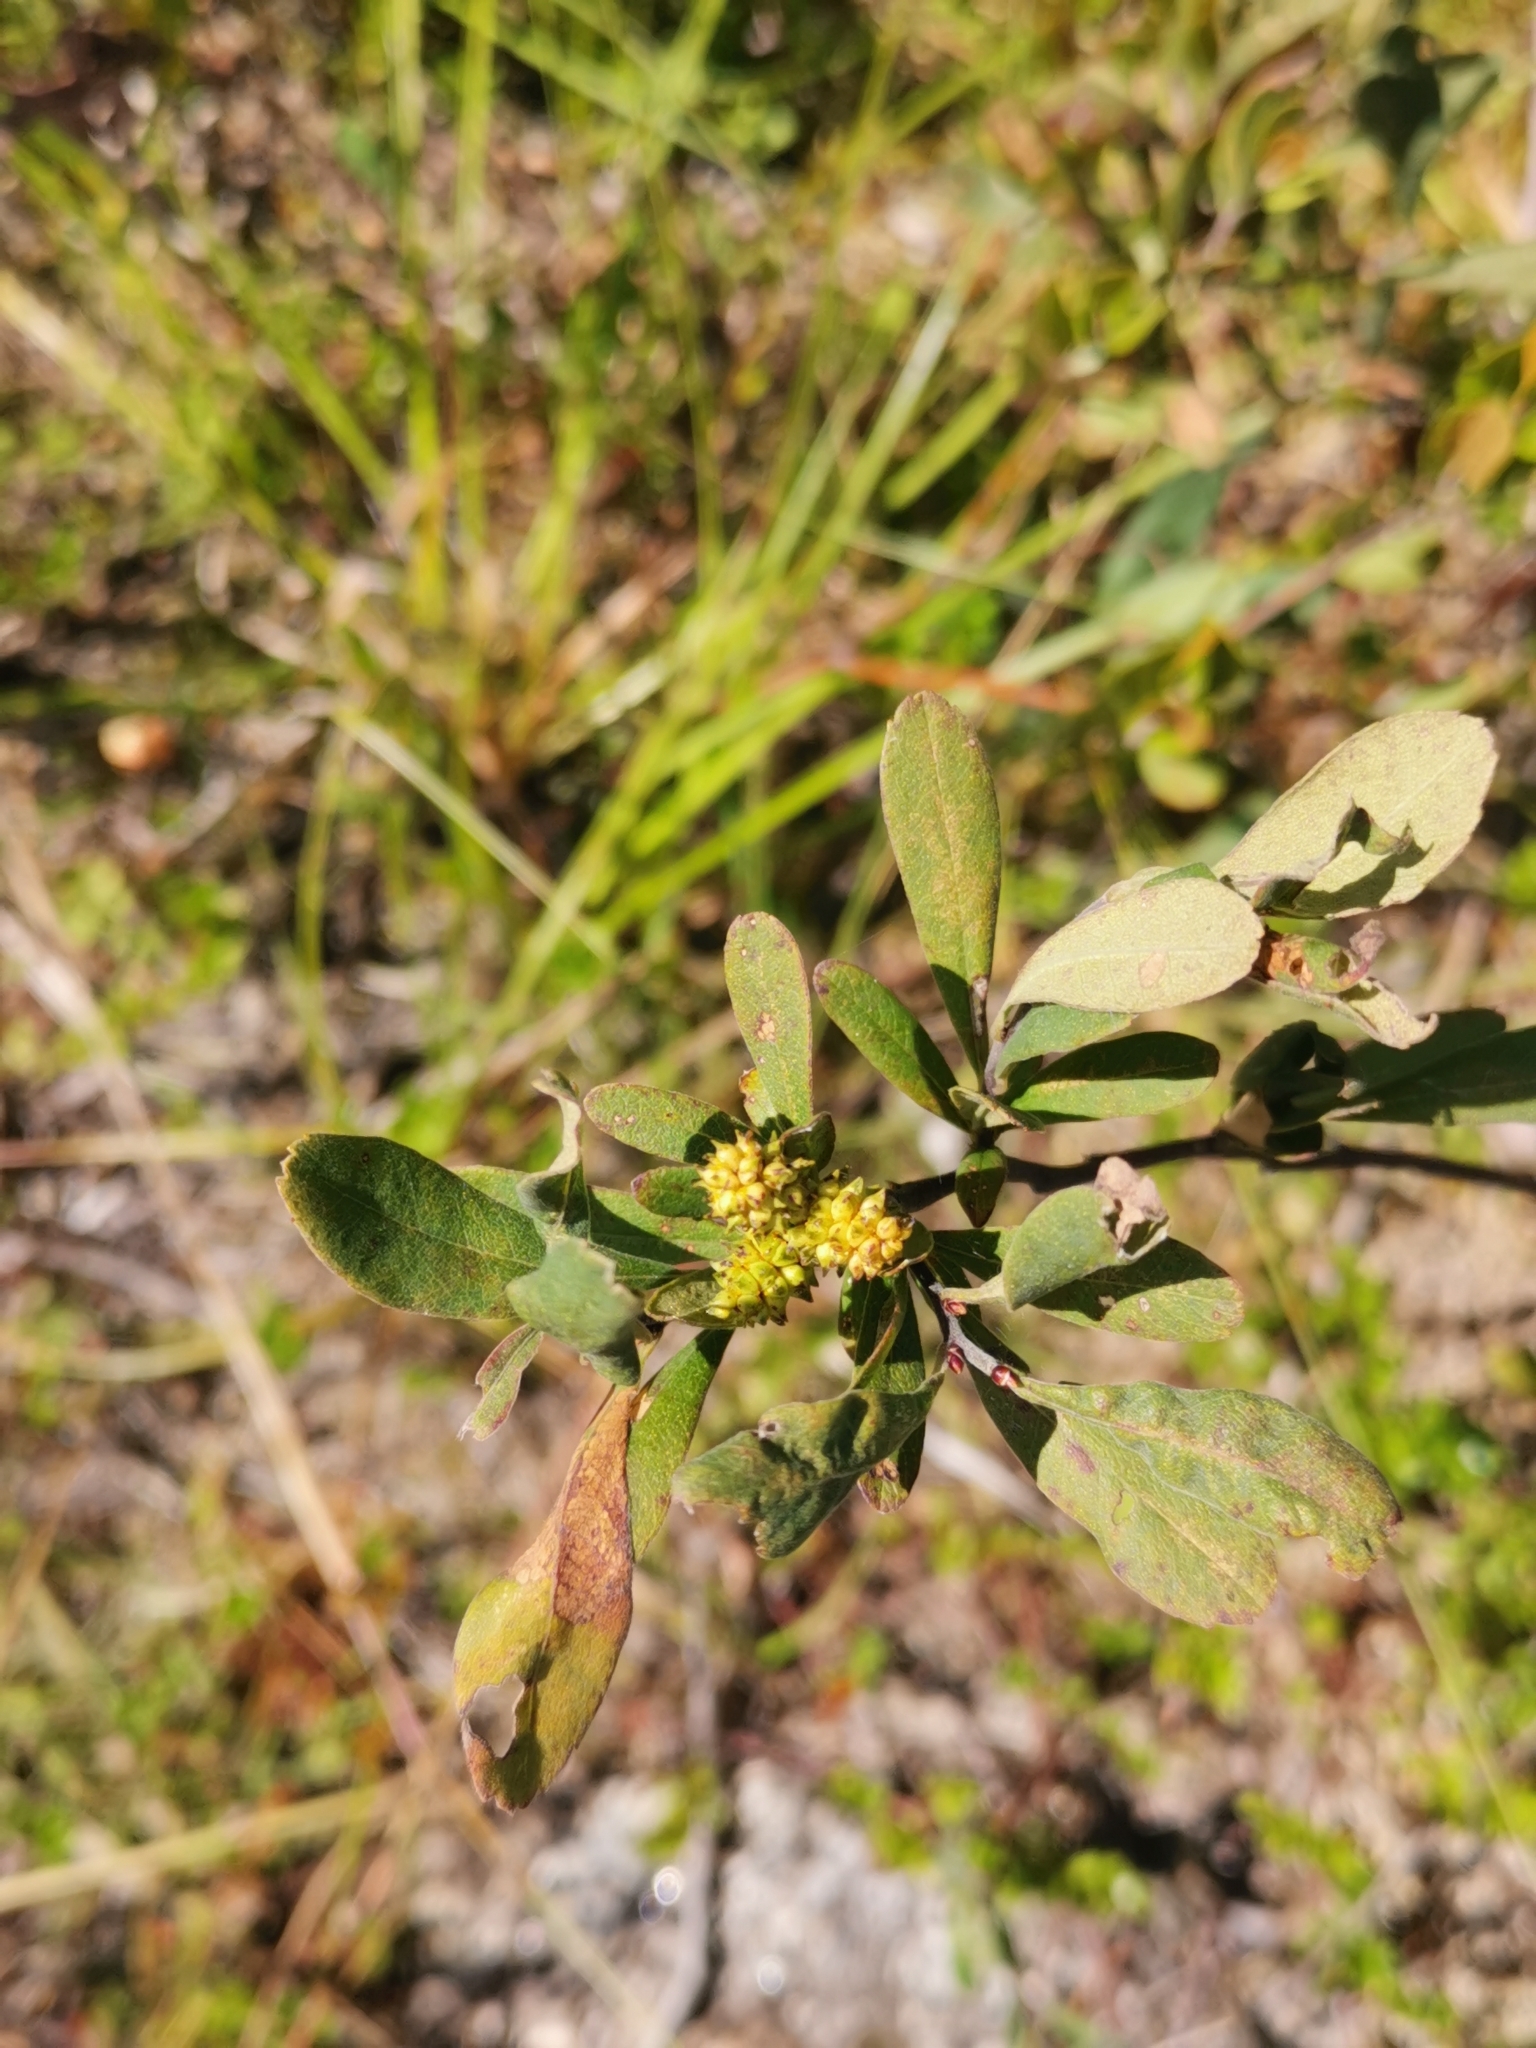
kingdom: Plantae
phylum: Tracheophyta
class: Magnoliopsida
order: Fagales
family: Myricaceae
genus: Myrica
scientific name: Myrica gale
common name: Sweet gale
